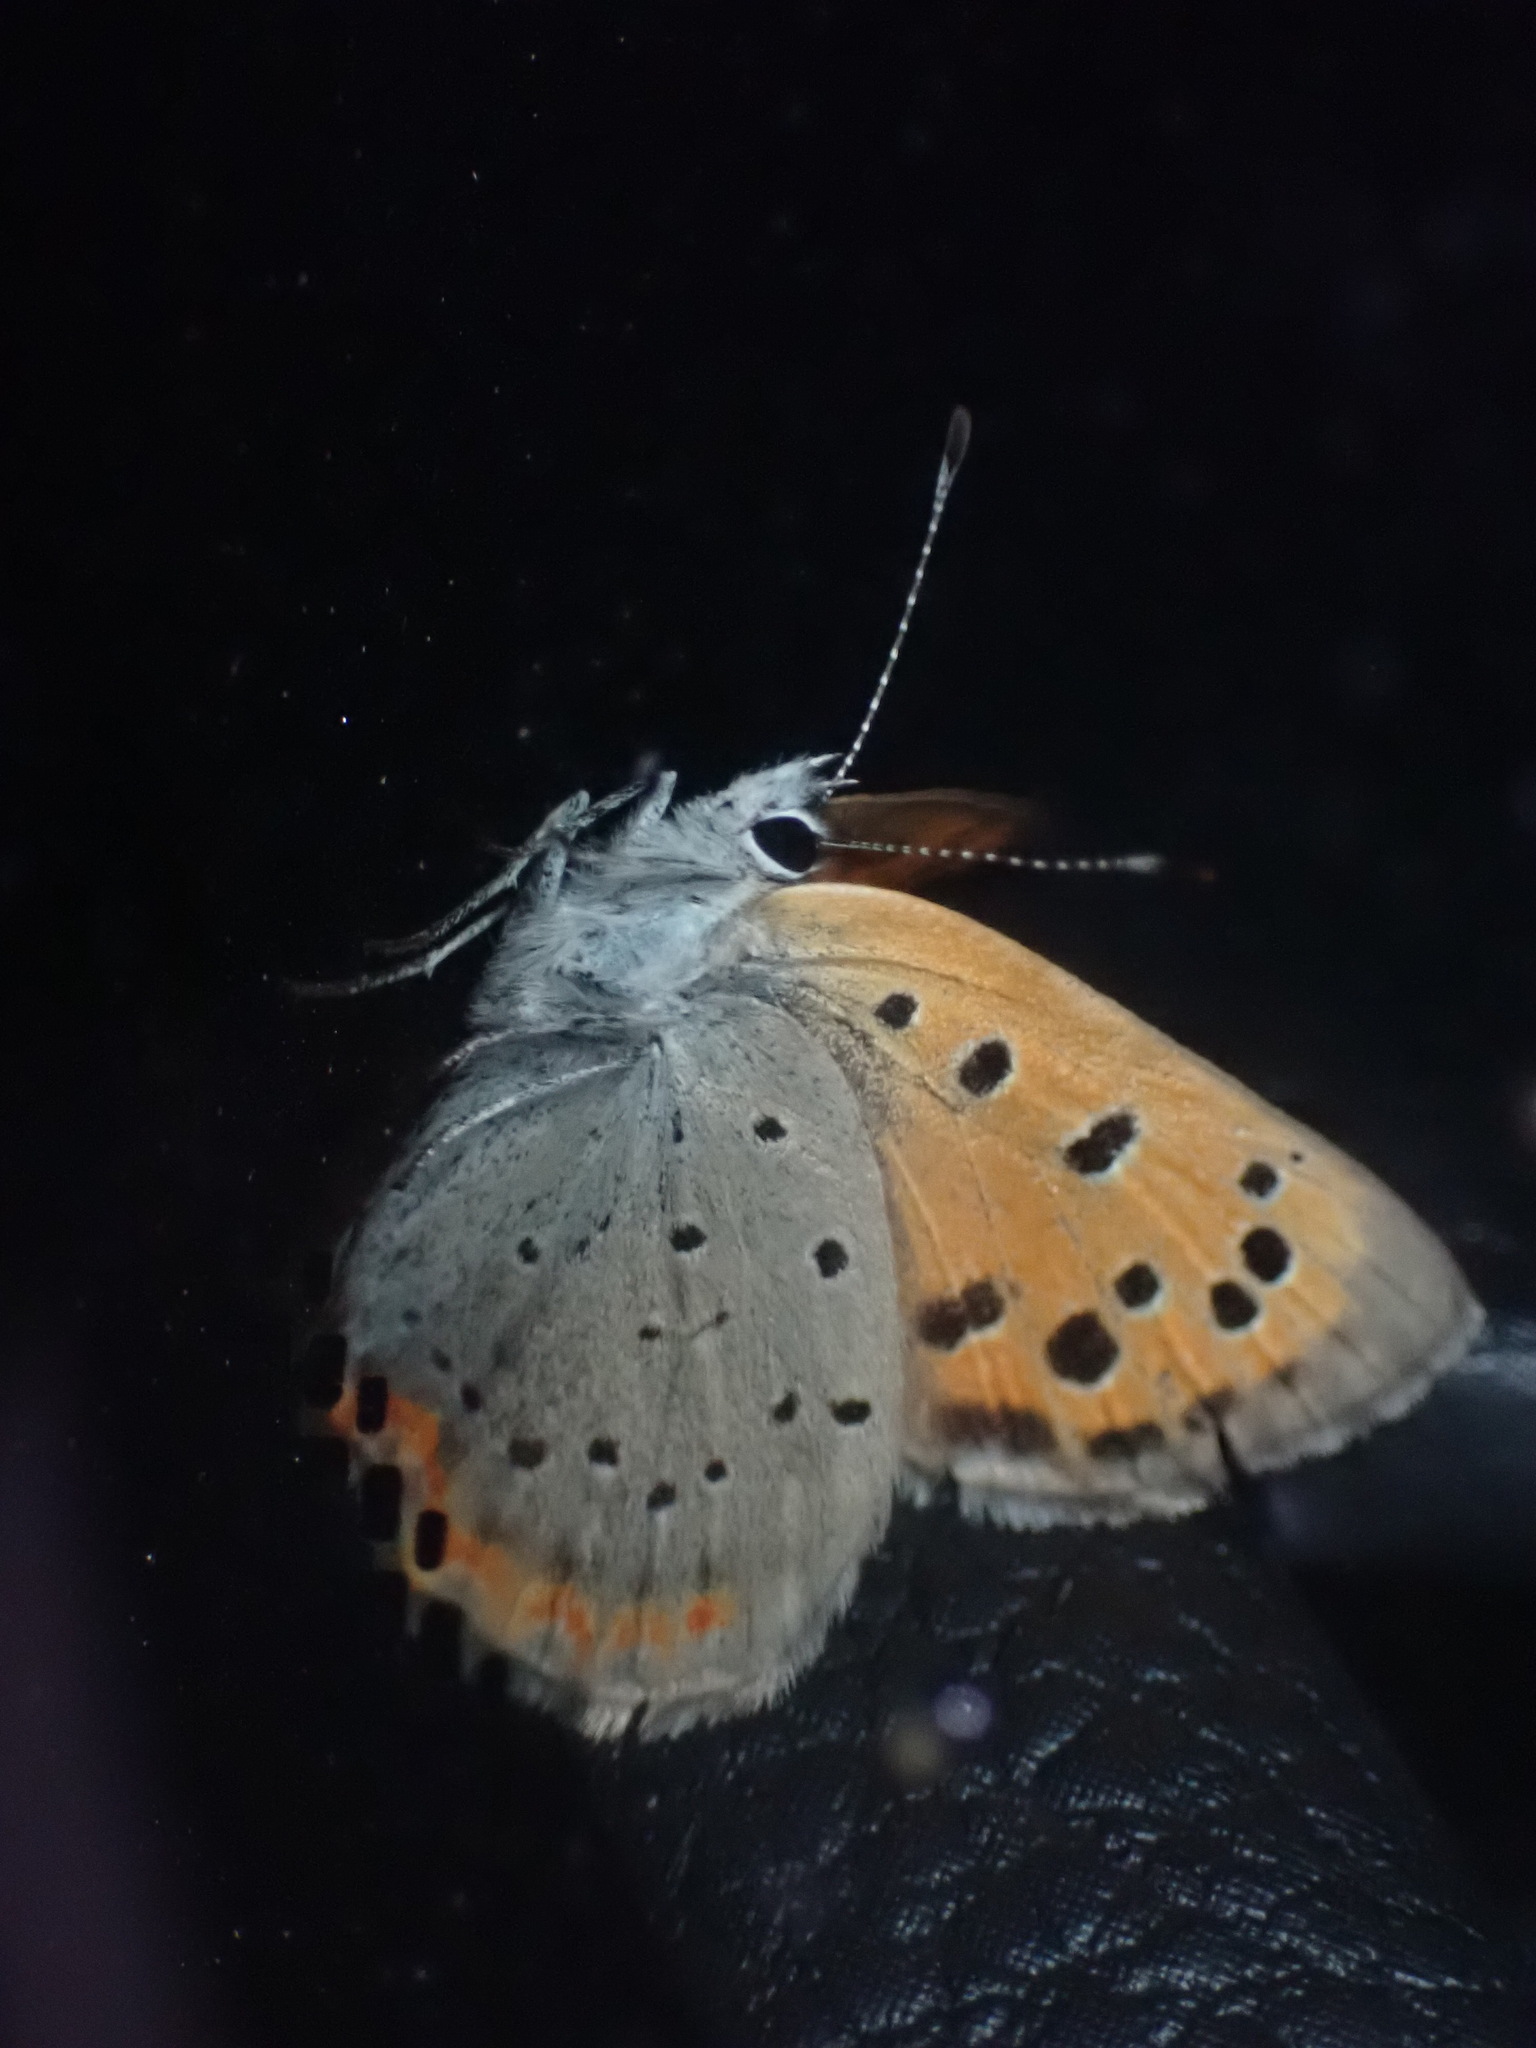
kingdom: Animalia
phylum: Arthropoda
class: Insecta
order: Lepidoptera
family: Lycaenidae
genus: Lycaena
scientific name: Lycaena phlaeas
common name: Small copper
